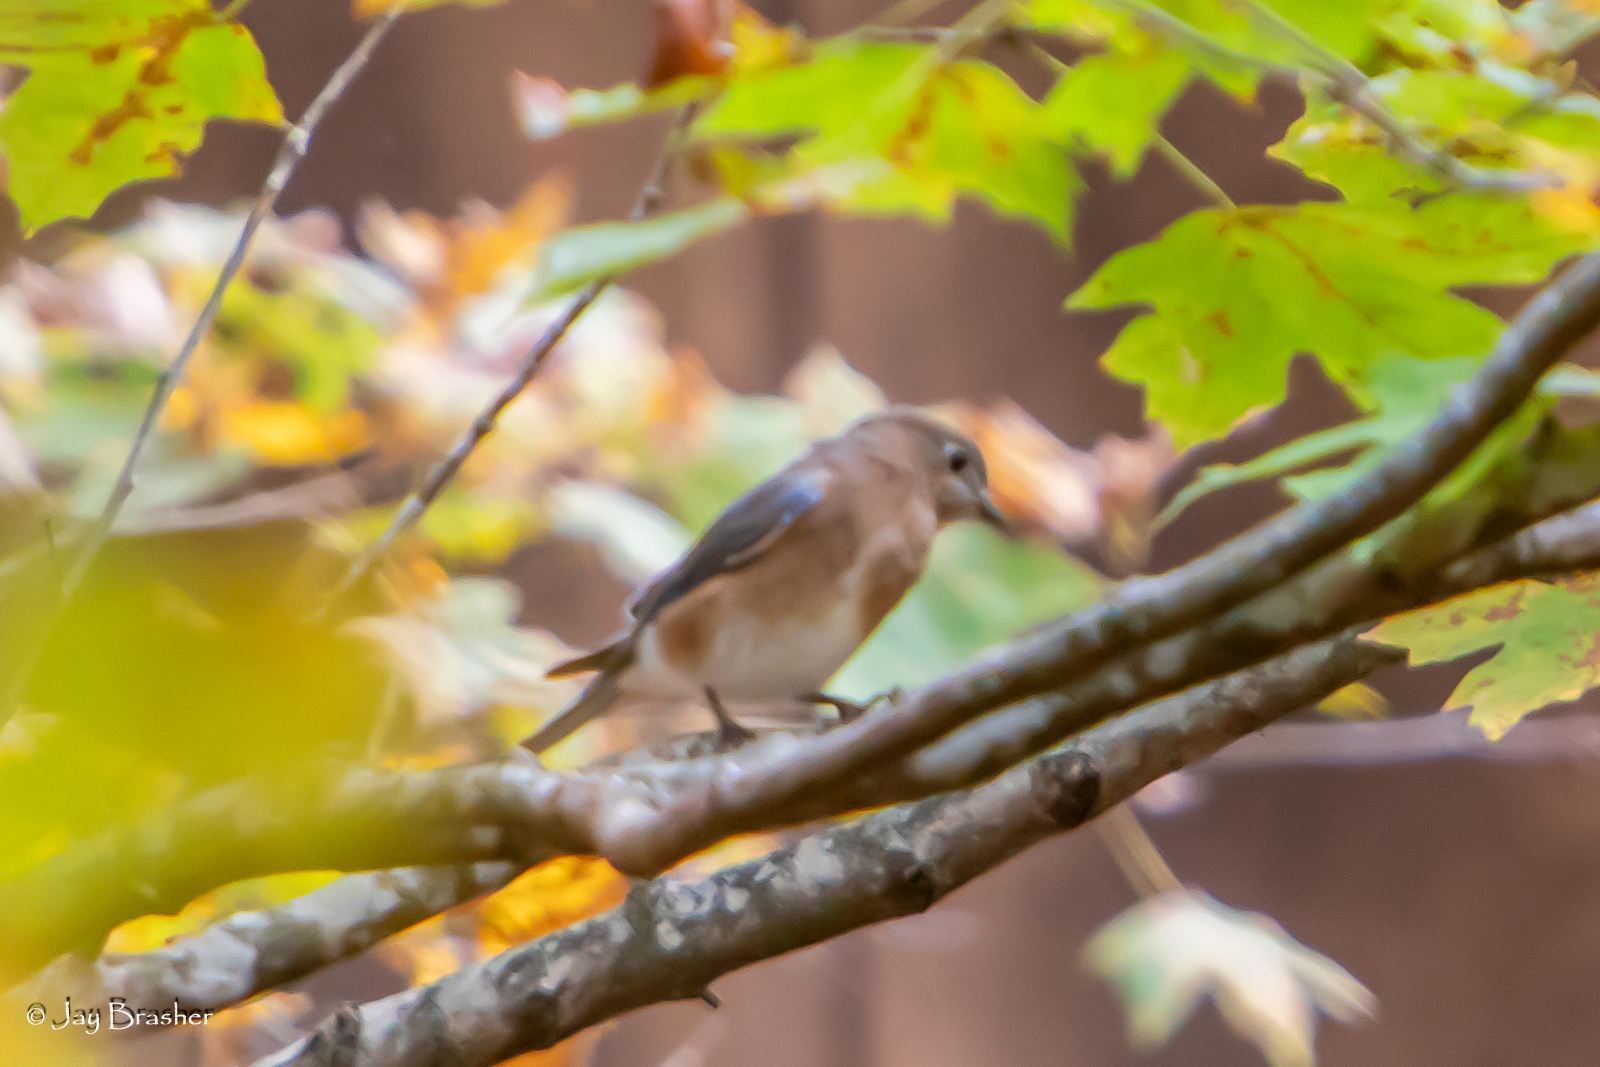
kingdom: Animalia
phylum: Chordata
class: Aves
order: Passeriformes
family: Turdidae
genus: Sialia
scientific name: Sialia sialis
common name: Eastern bluebird
